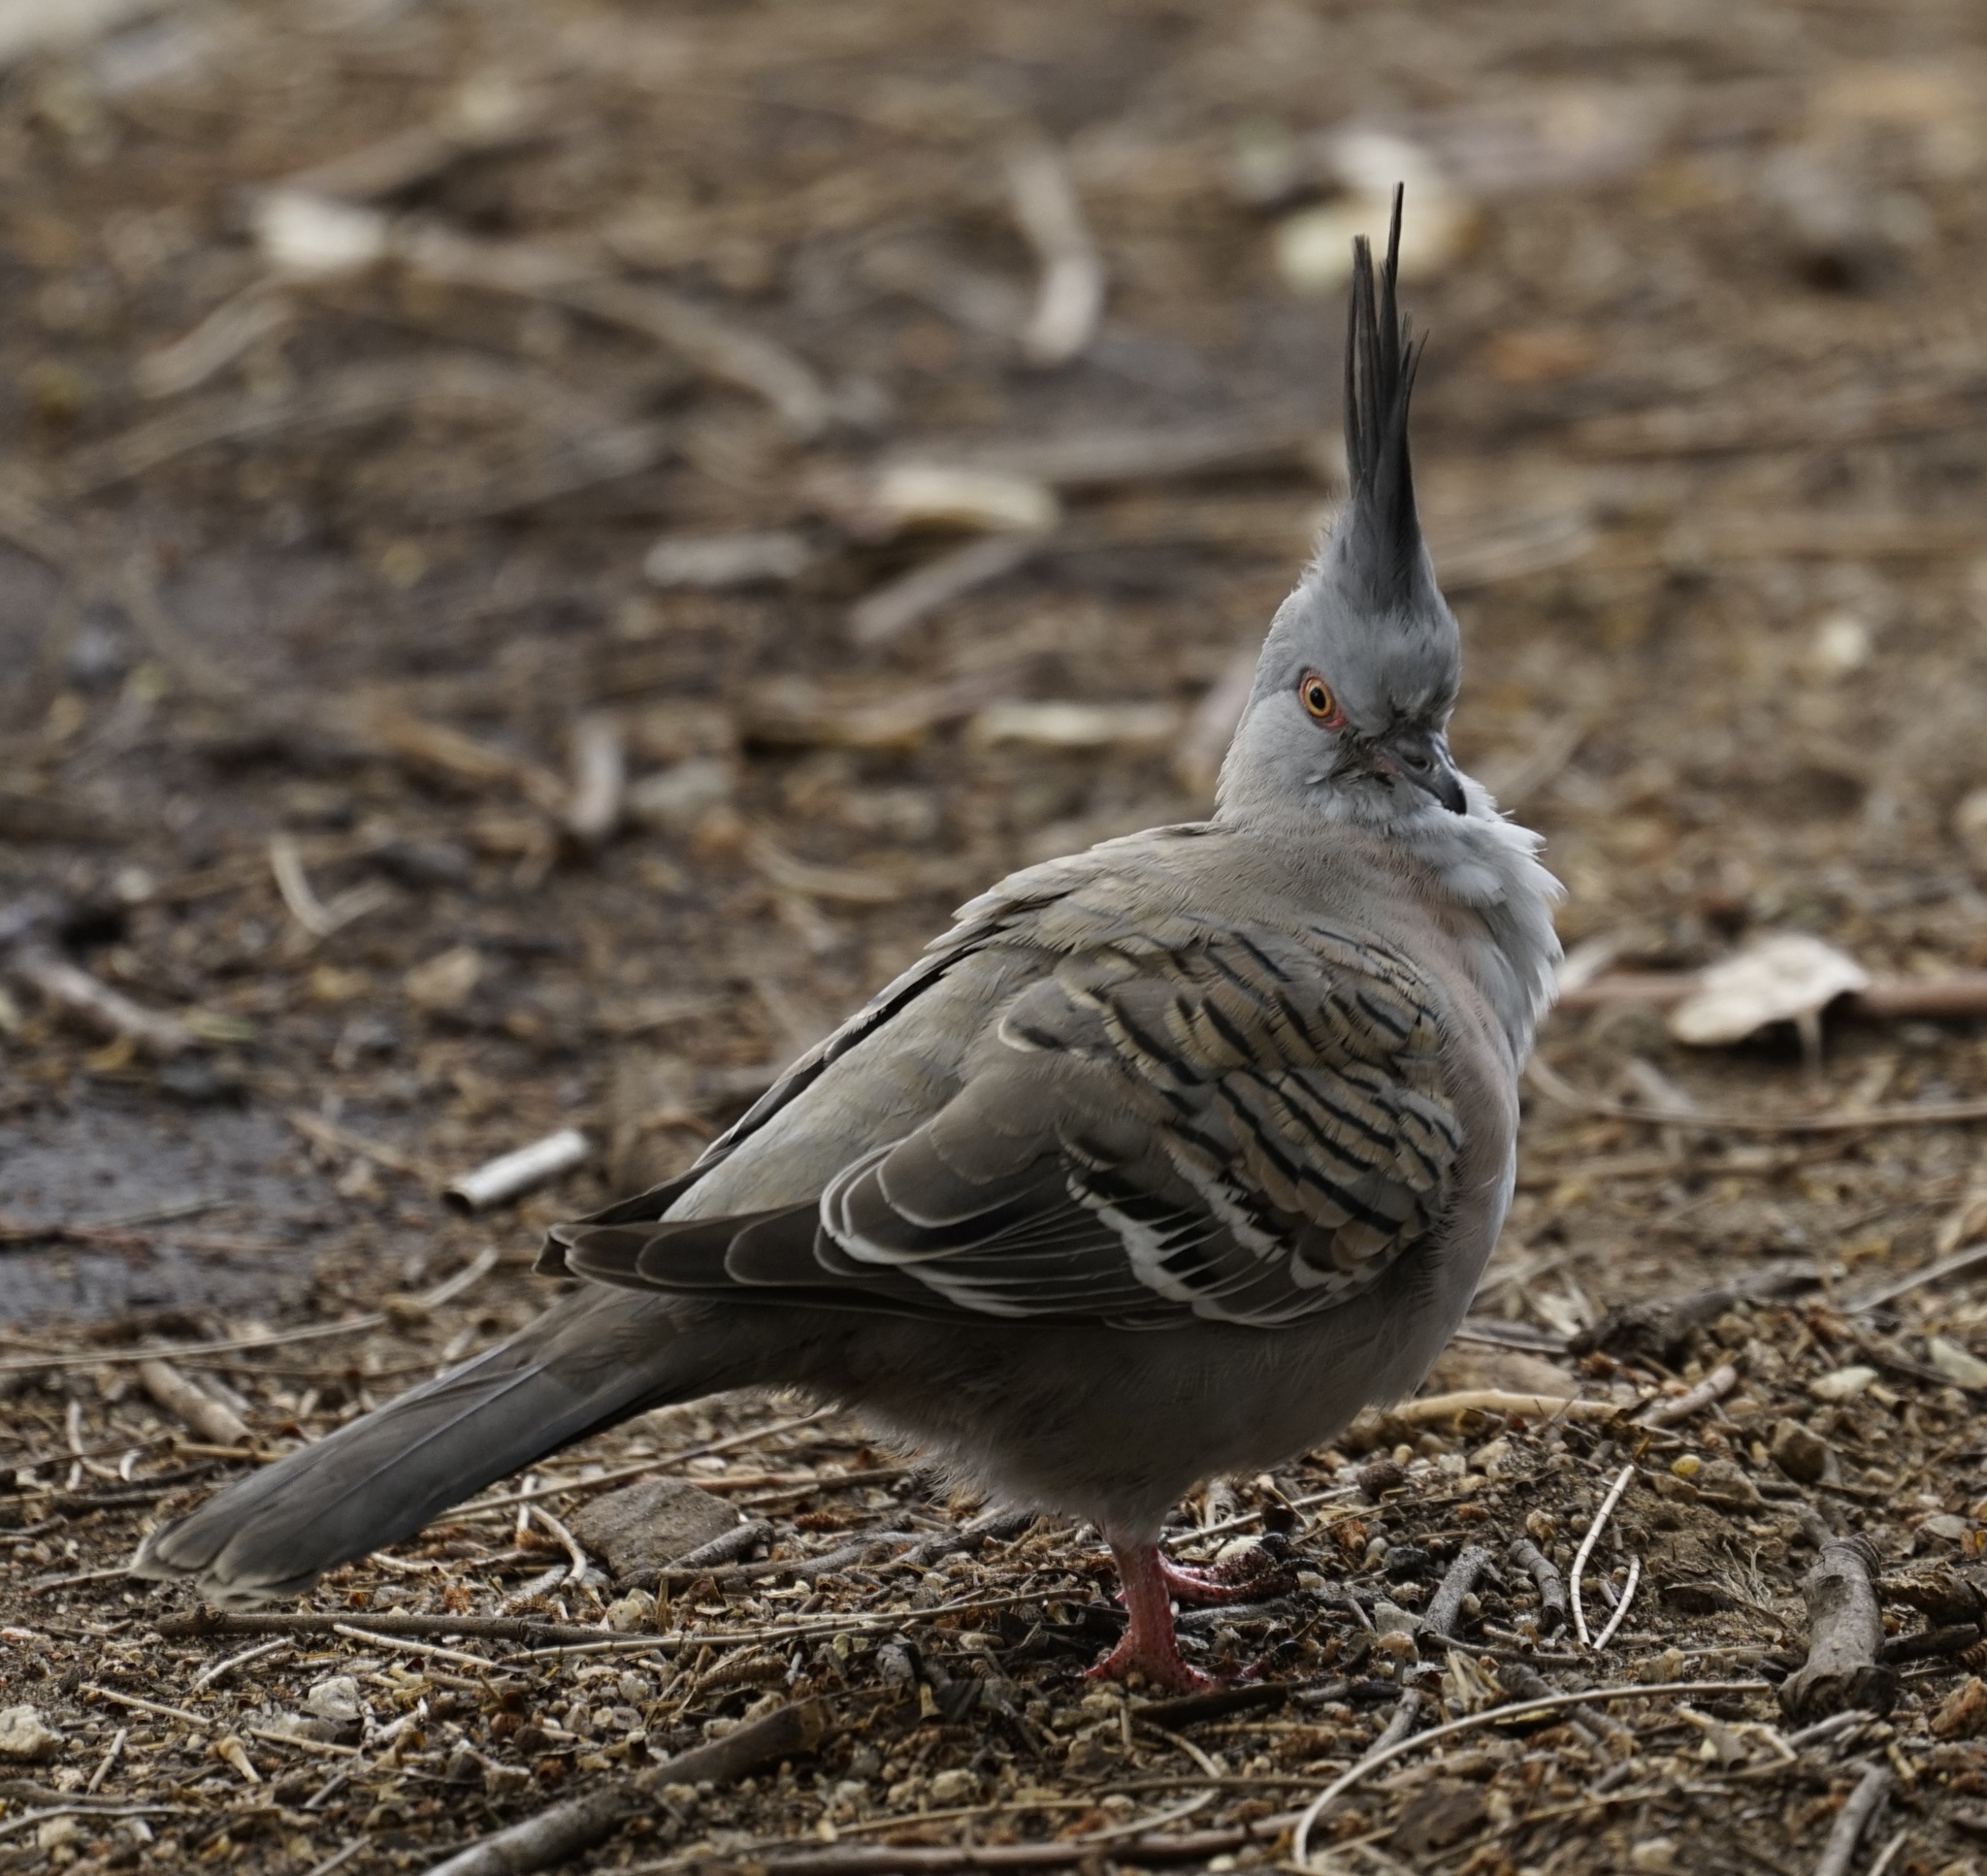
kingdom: Animalia
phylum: Chordata
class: Aves
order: Columbiformes
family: Columbidae
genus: Ocyphaps
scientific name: Ocyphaps lophotes
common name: Crested pigeon
